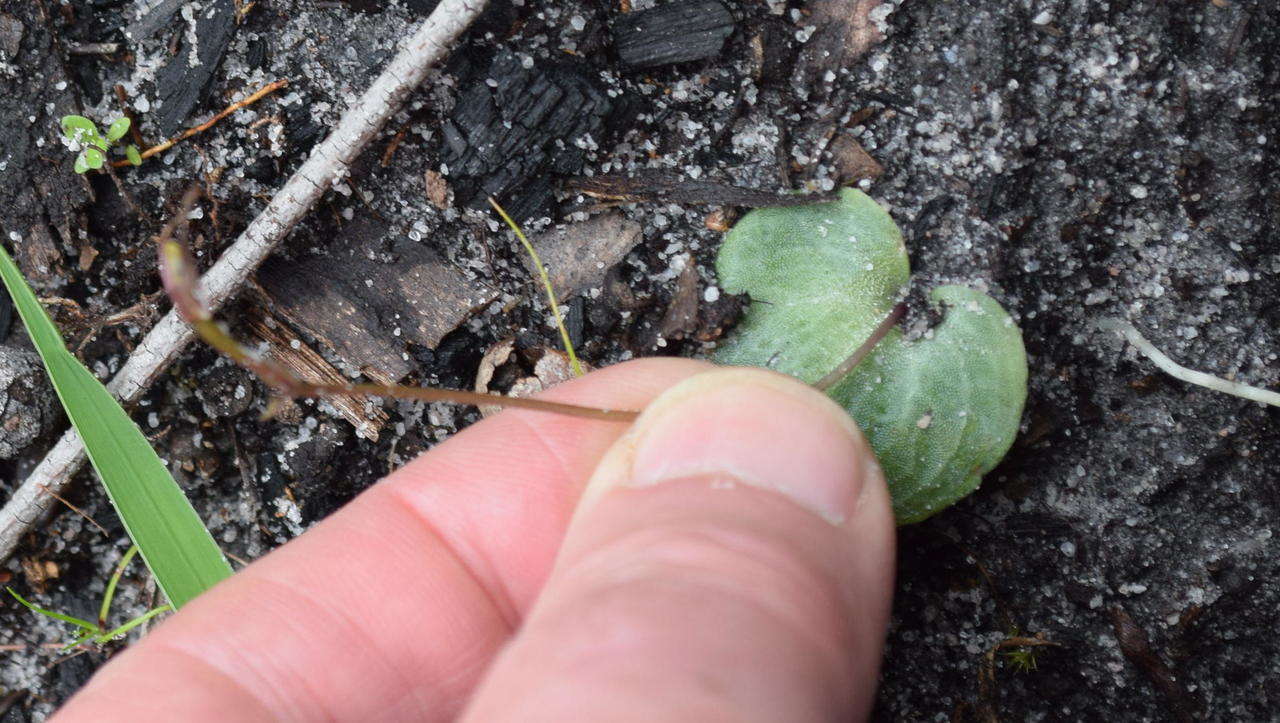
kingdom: Plantae
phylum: Tracheophyta
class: Liliopsida
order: Asparagales
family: Orchidaceae
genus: Cyrtostylis
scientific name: Cyrtostylis reniformis
